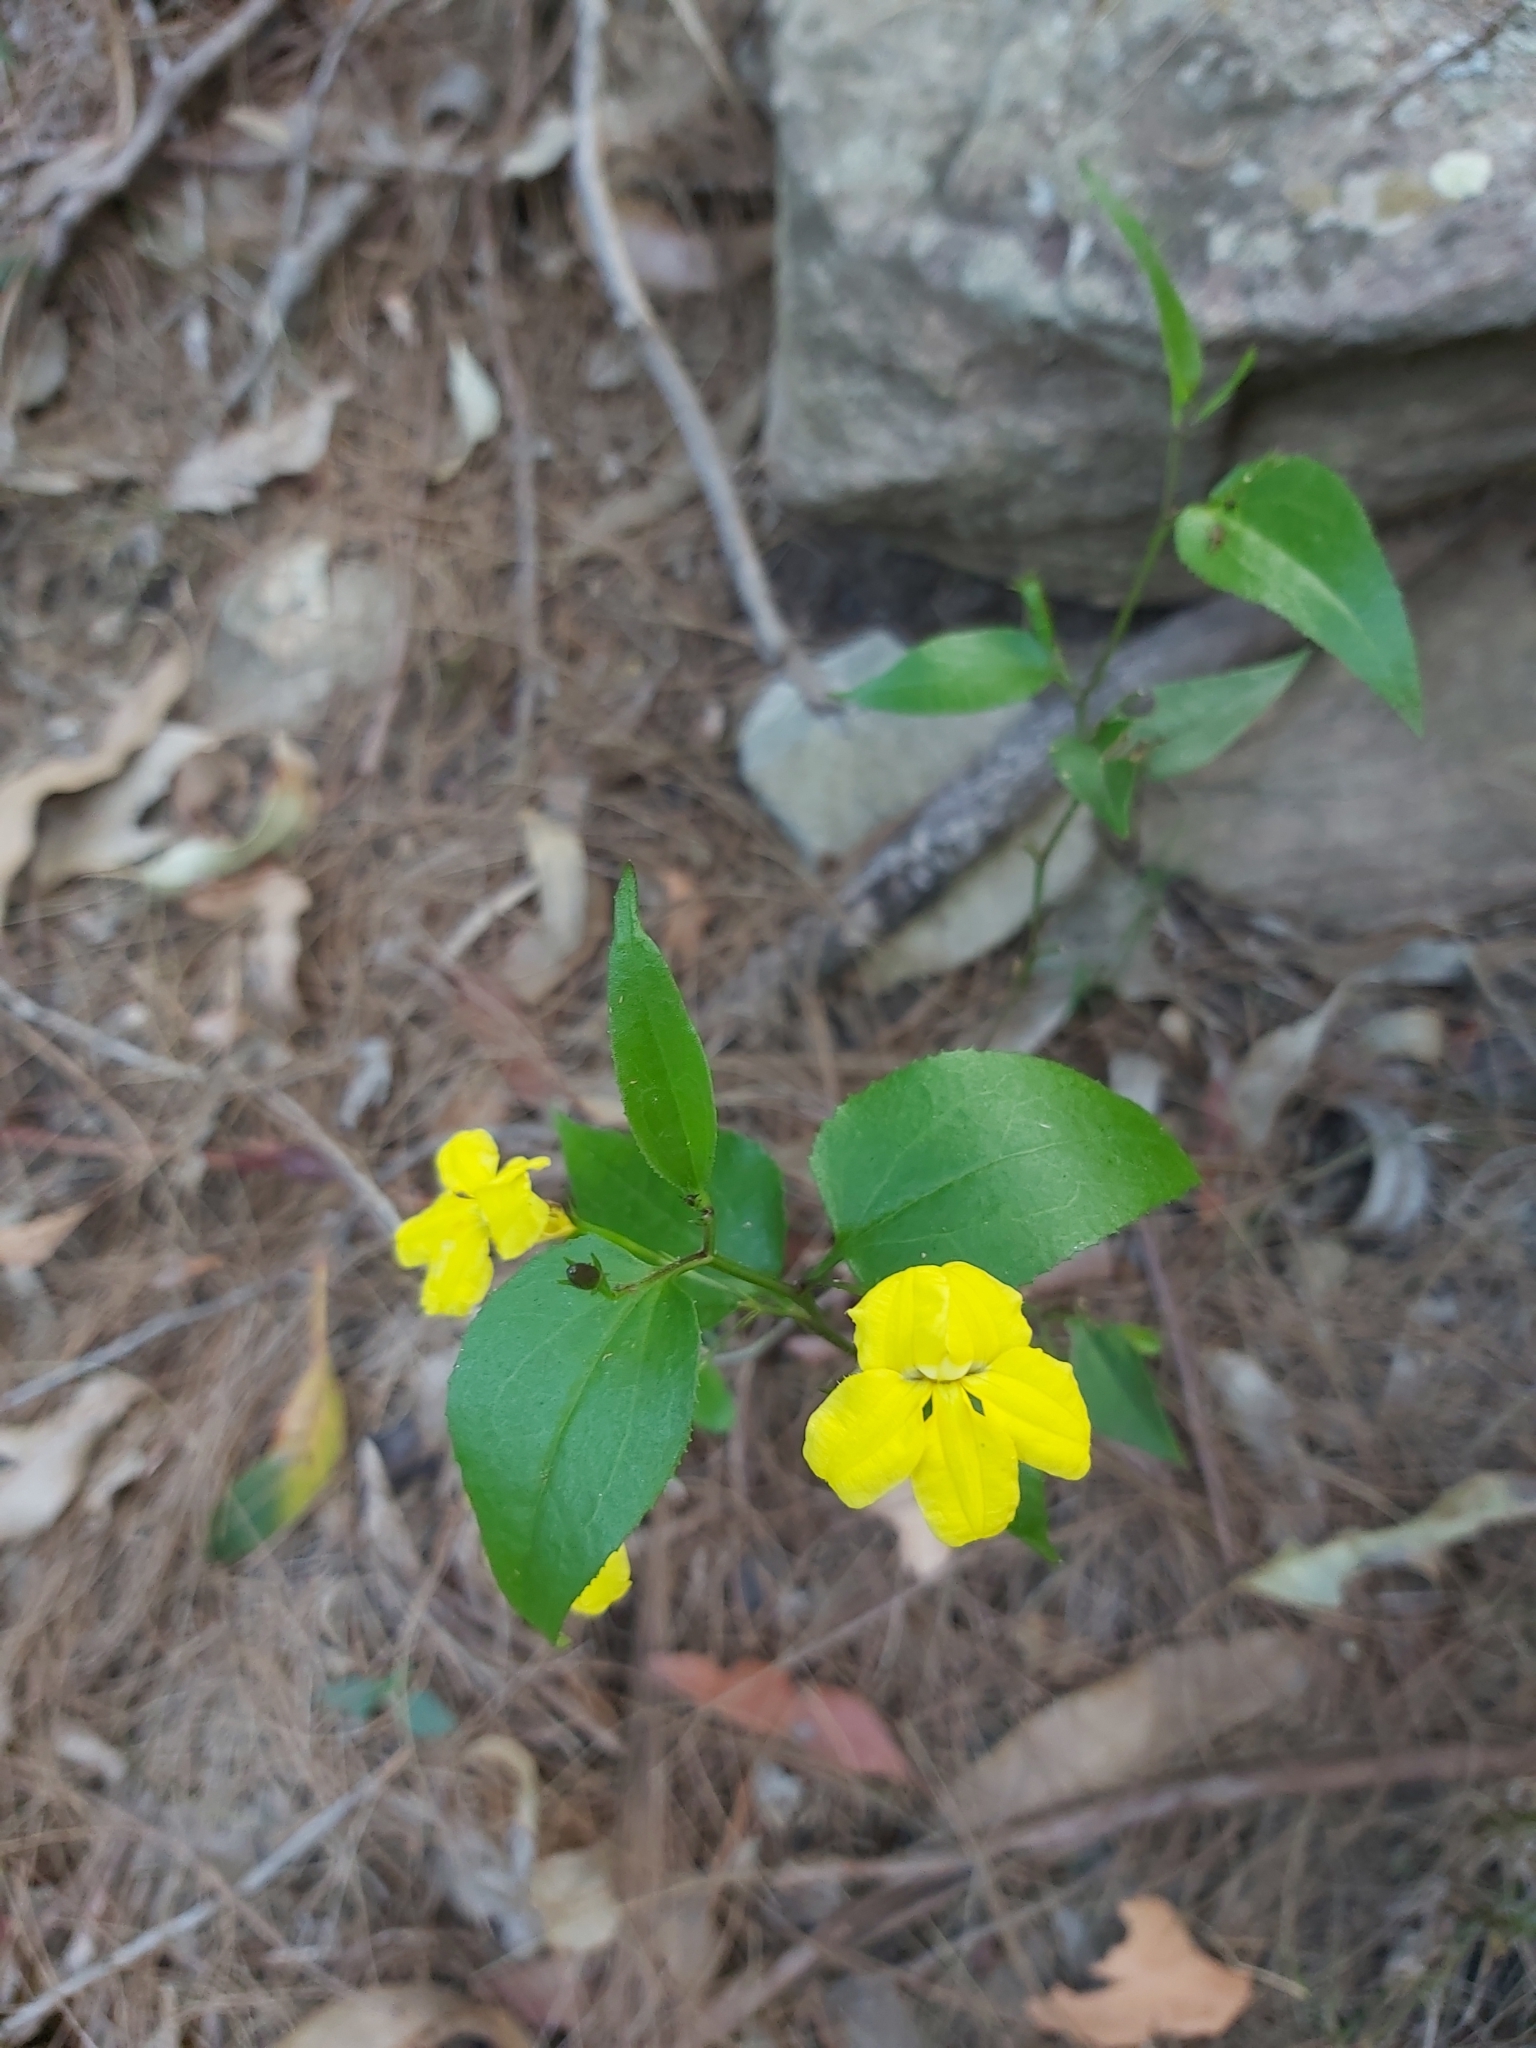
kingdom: Plantae
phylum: Tracheophyta
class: Magnoliopsida
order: Asterales
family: Goodeniaceae
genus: Goodenia
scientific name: Goodenia ovata
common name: Hop goodenia
